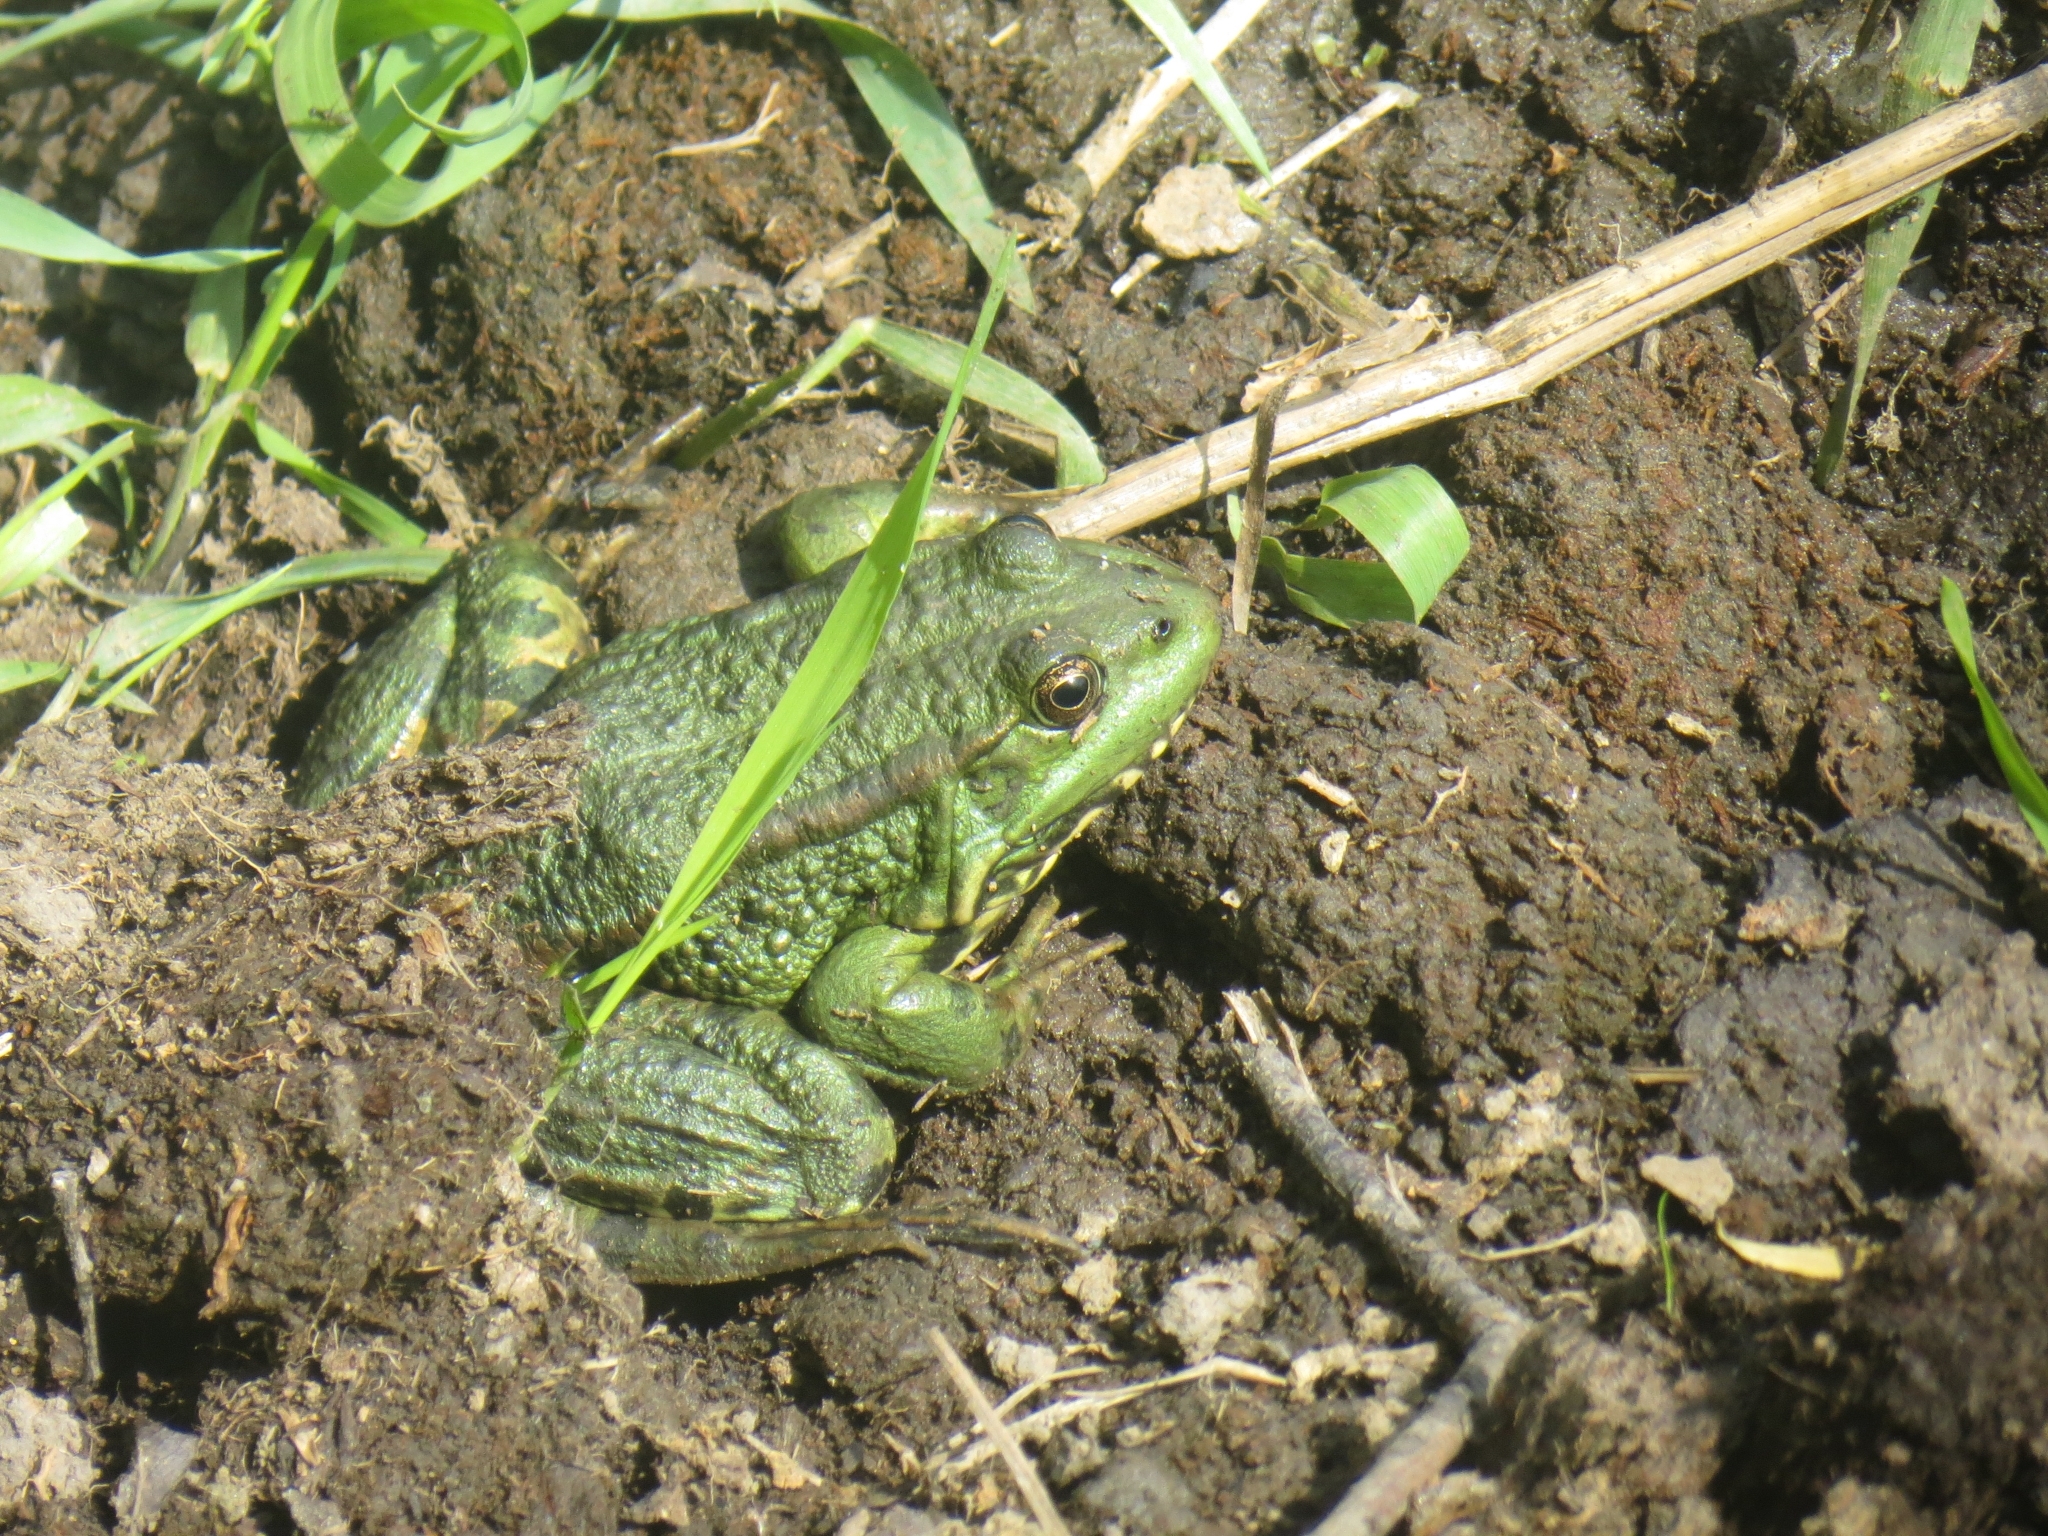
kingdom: Animalia
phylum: Chordata
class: Amphibia
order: Anura
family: Ranidae
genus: Pelophylax
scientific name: Pelophylax ridibundus
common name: Marsh frog
